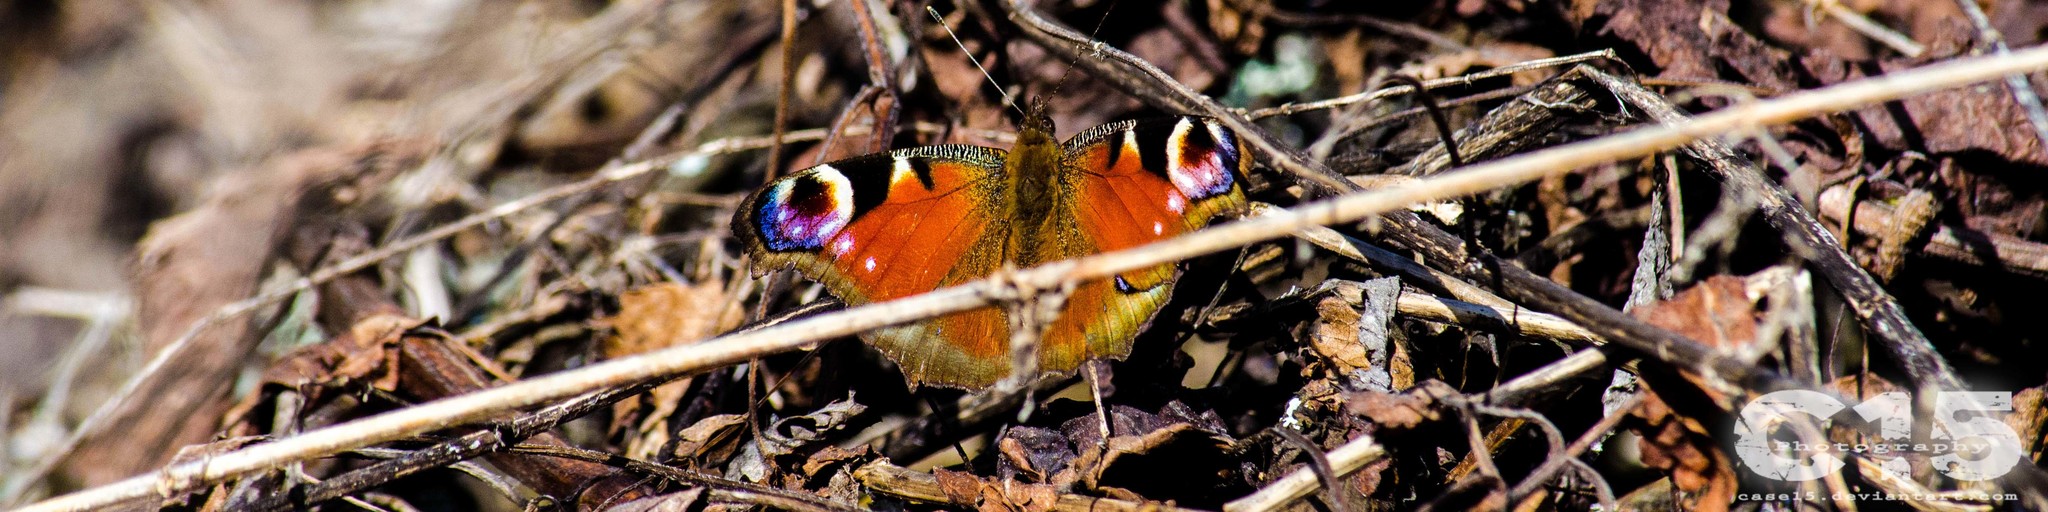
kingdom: Animalia
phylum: Arthropoda
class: Insecta
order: Lepidoptera
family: Nymphalidae
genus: Aglais
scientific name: Aglais io
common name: Peacock
